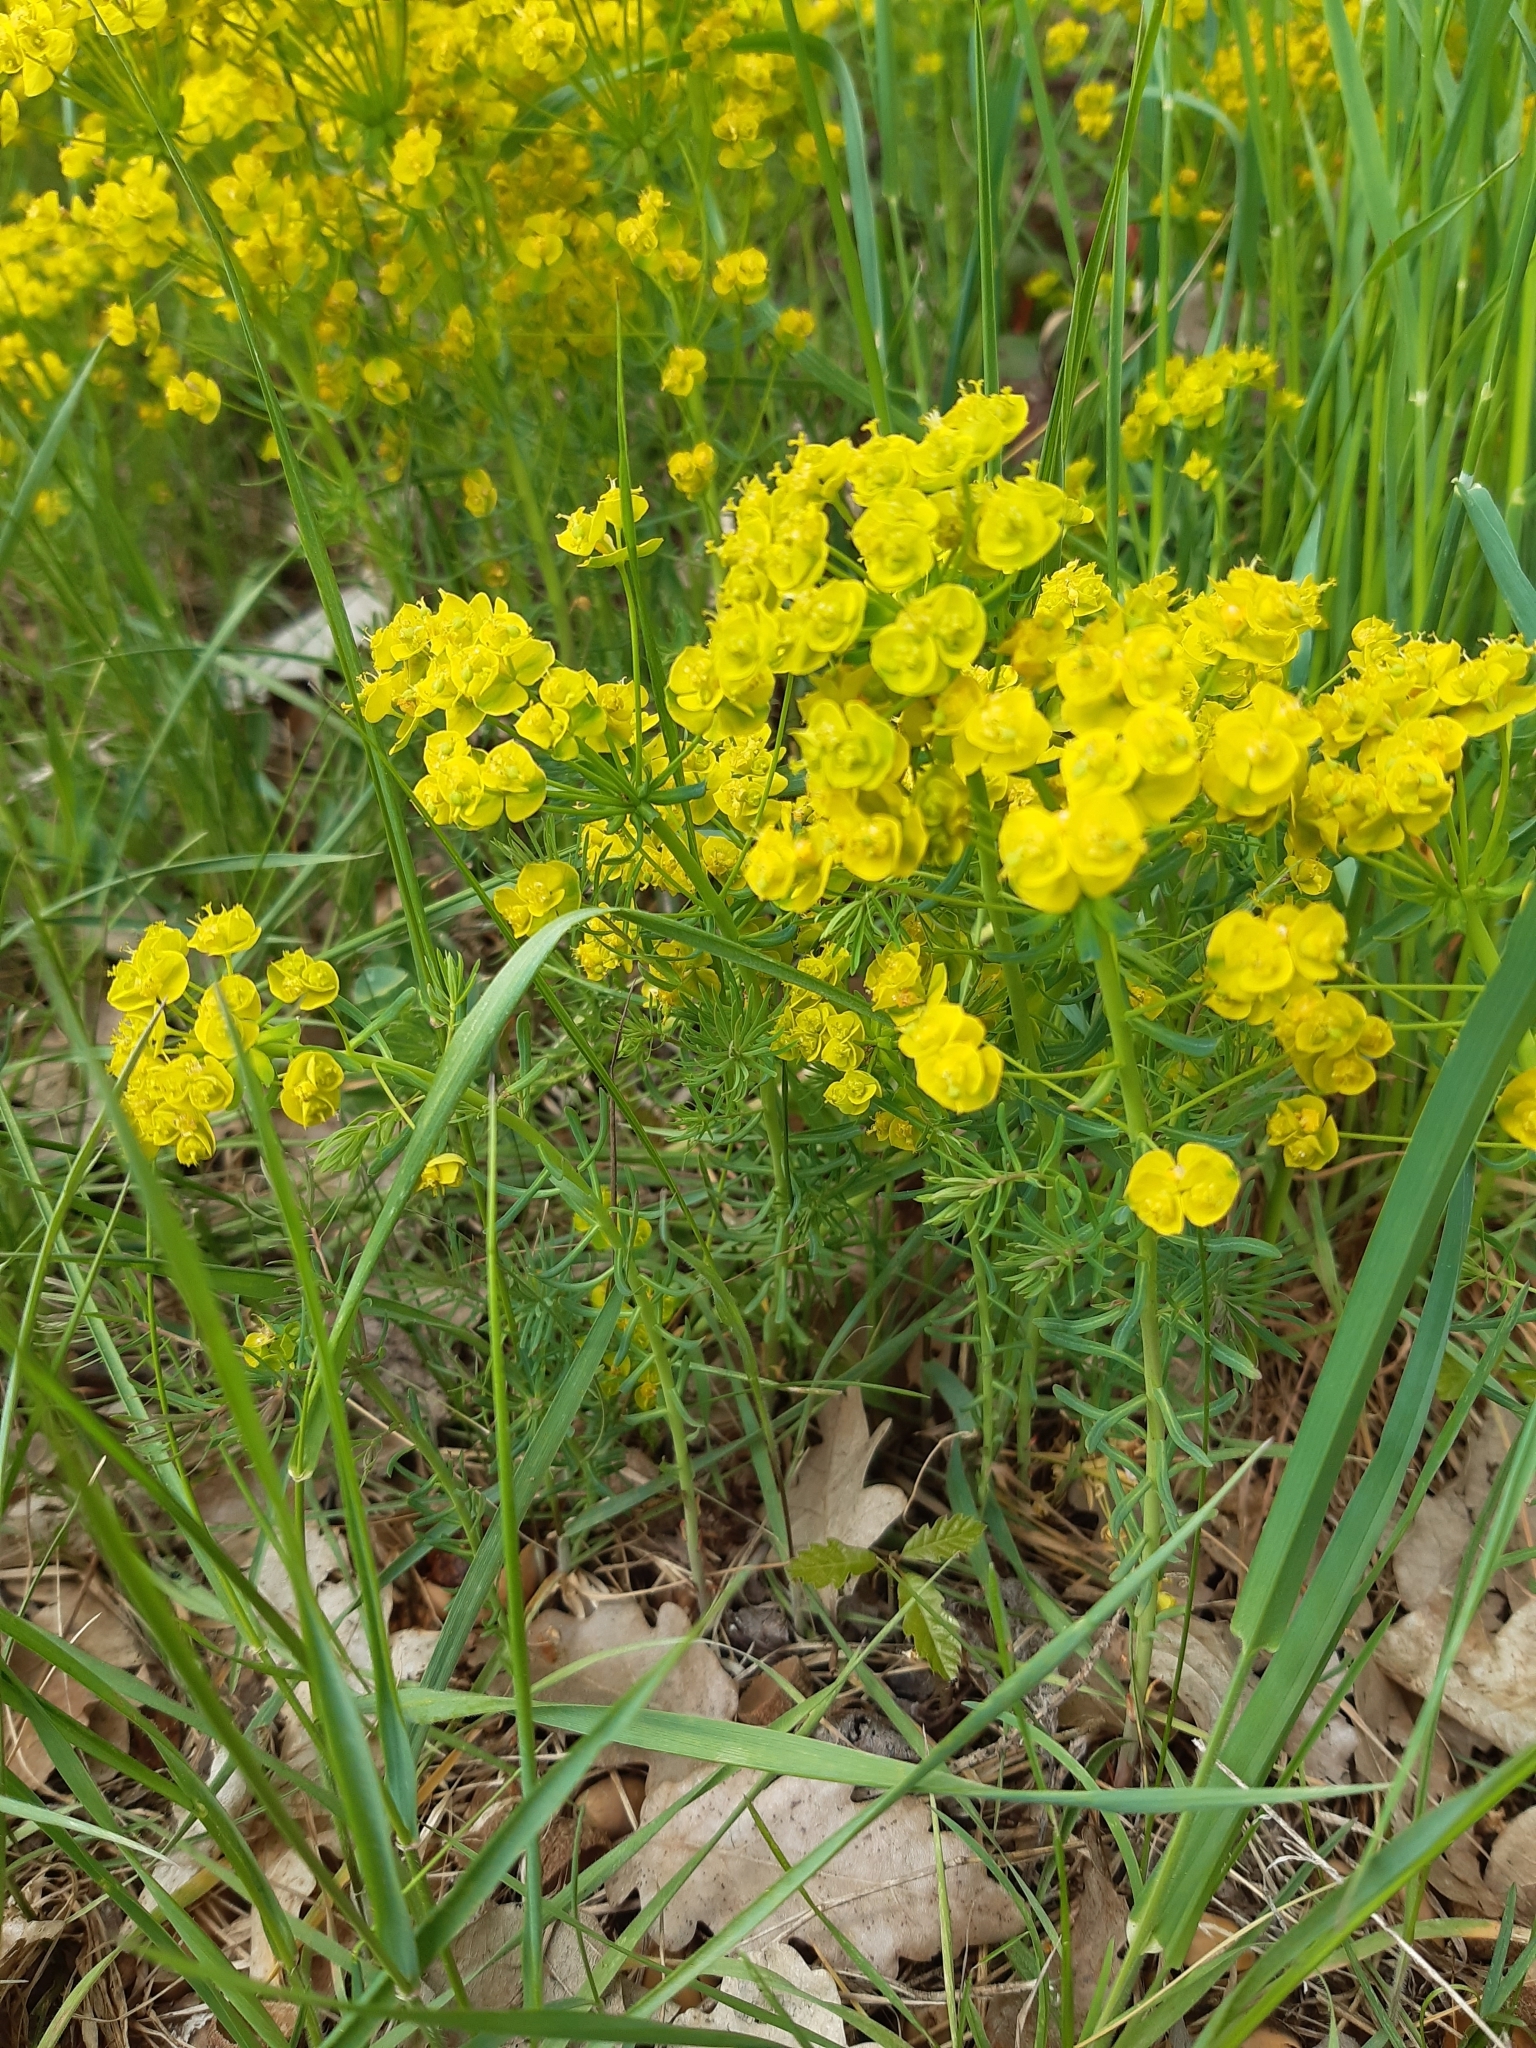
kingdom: Plantae
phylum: Tracheophyta
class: Magnoliopsida
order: Malpighiales
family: Euphorbiaceae
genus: Euphorbia
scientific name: Euphorbia cyparissias
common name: Cypress spurge
